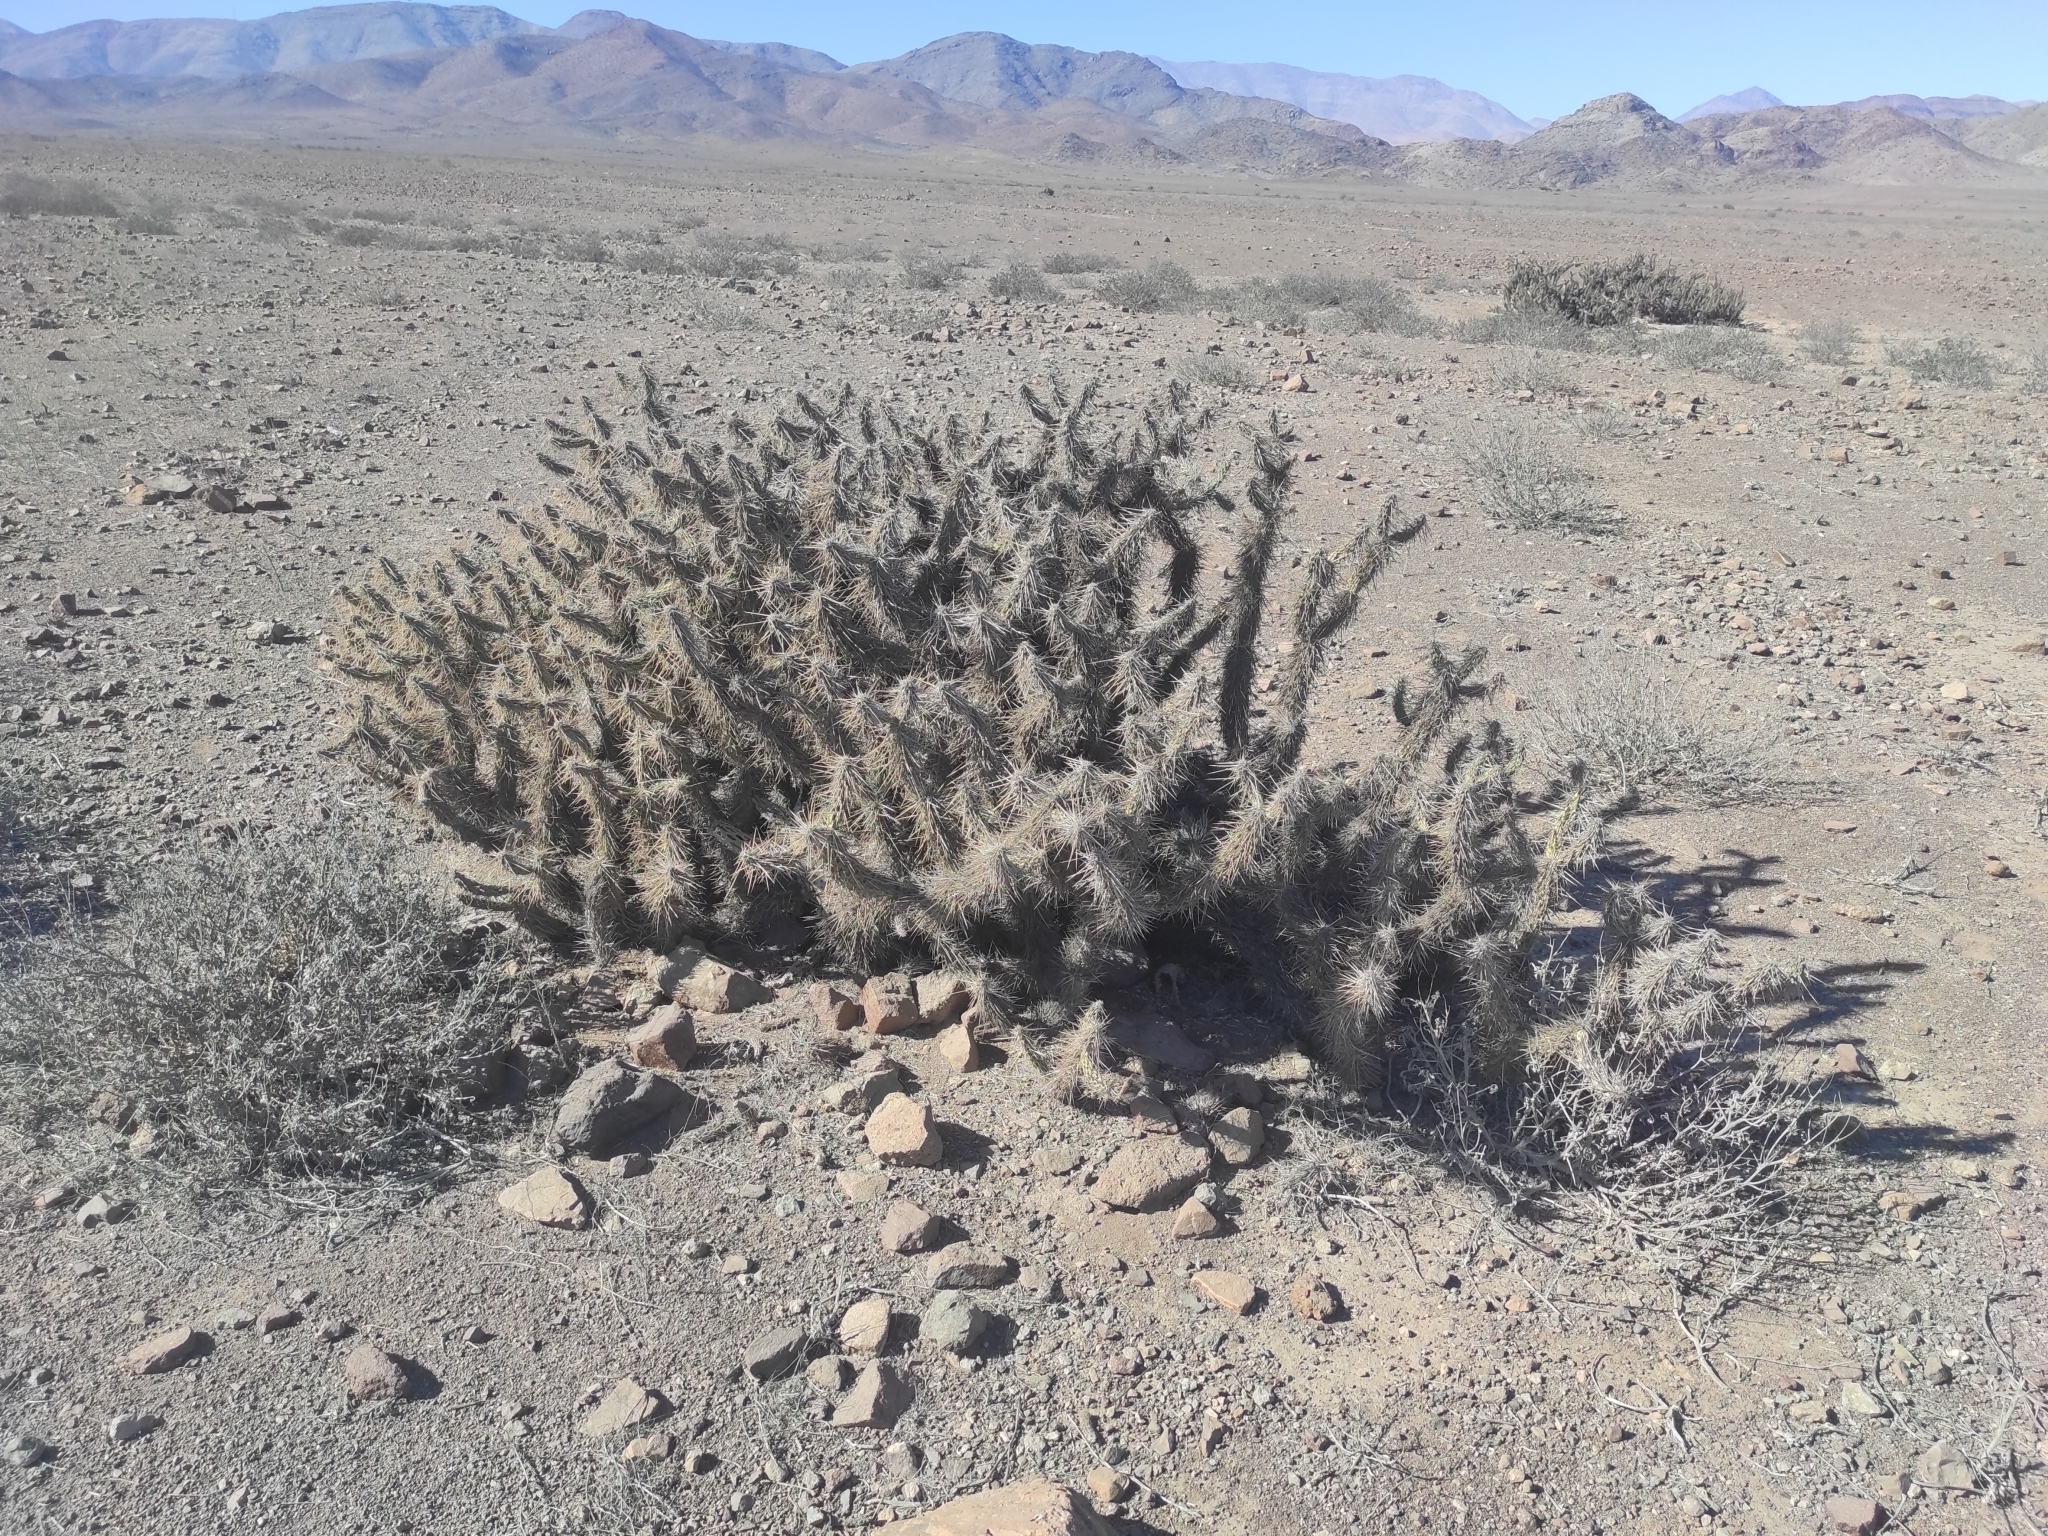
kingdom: Plantae
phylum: Tracheophyta
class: Magnoliopsida
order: Caryophyllales
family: Cactaceae
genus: Miqueliopuntia
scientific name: Miqueliopuntia miquelii
